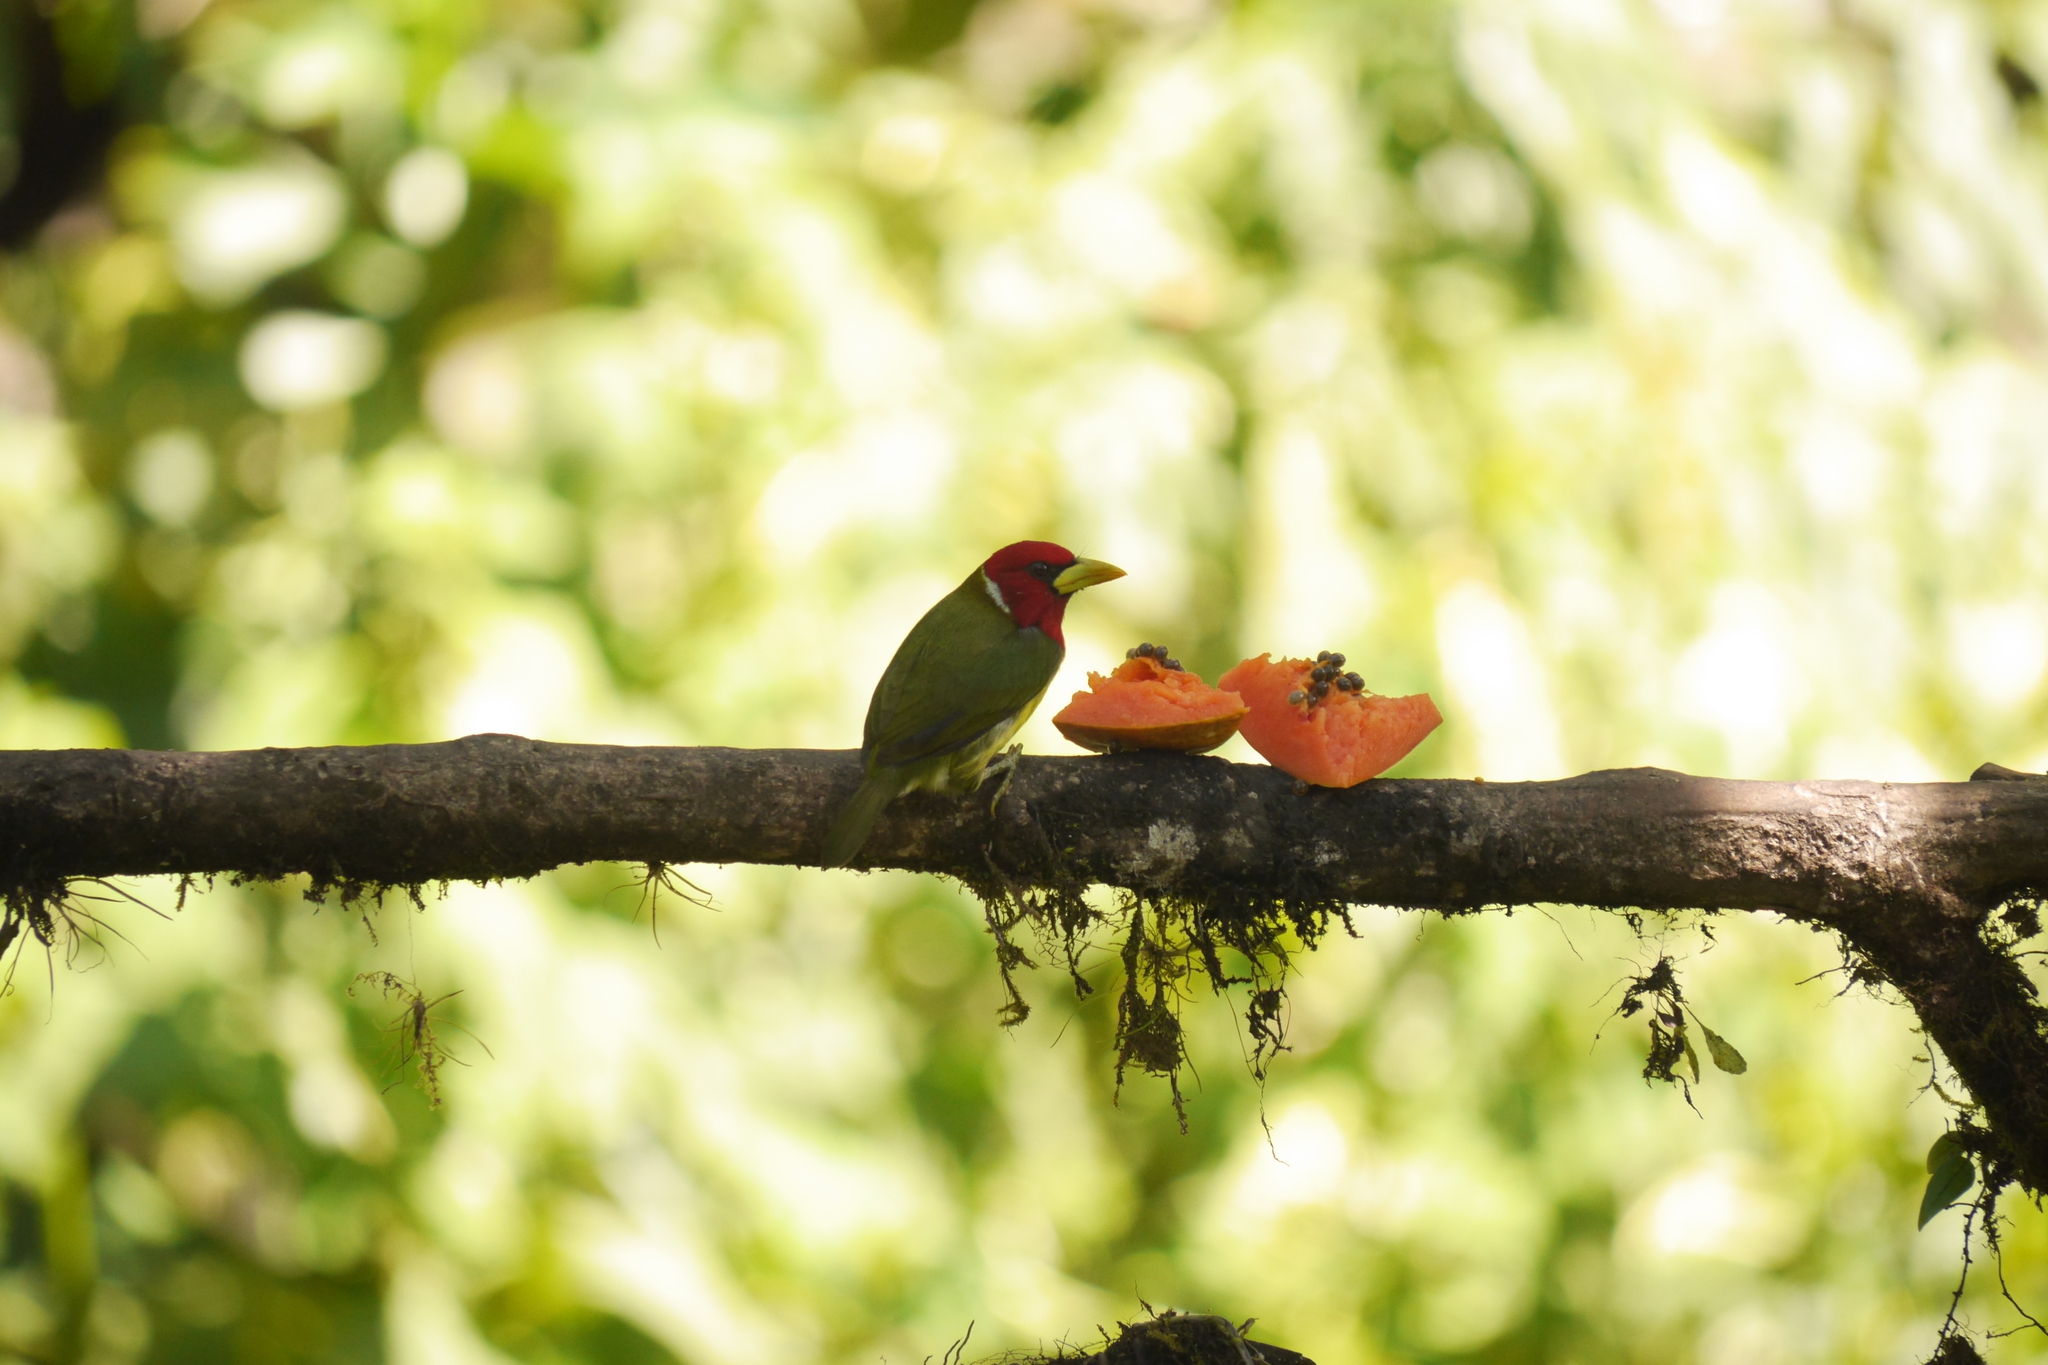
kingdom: Animalia
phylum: Chordata
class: Aves
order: Piciformes
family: Capitonidae
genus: Eubucco
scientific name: Eubucco bourcierii
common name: Red-headed barbet
